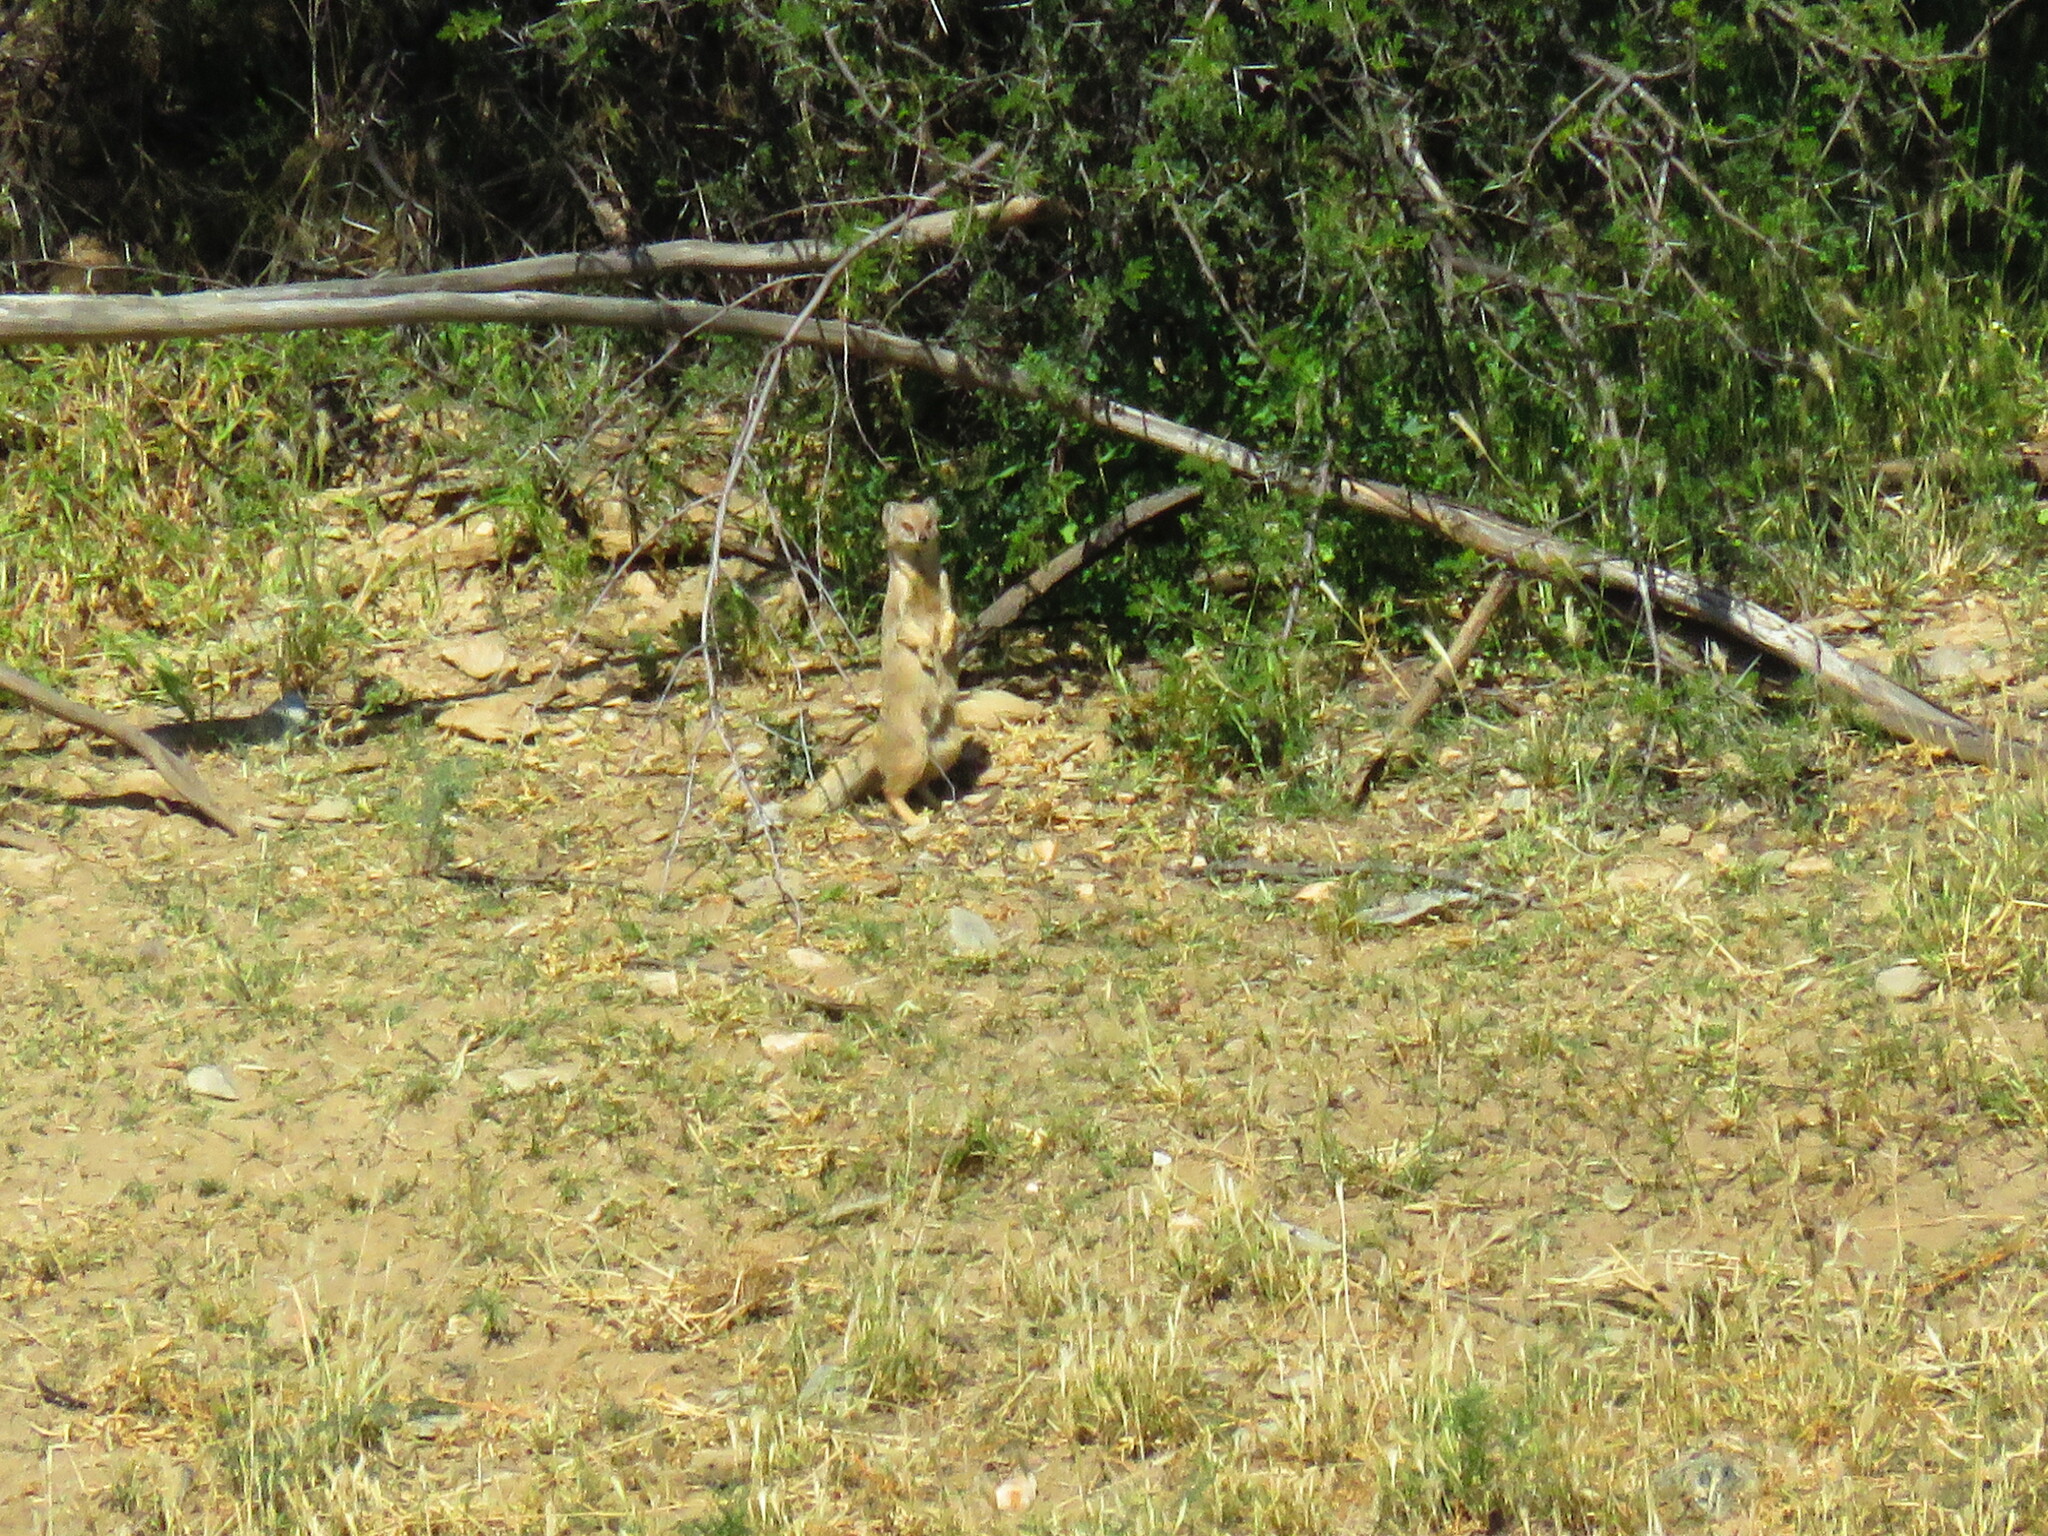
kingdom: Animalia
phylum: Chordata
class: Mammalia
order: Carnivora
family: Herpestidae
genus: Cynictis
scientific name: Cynictis penicillata
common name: Yellow mongoose
